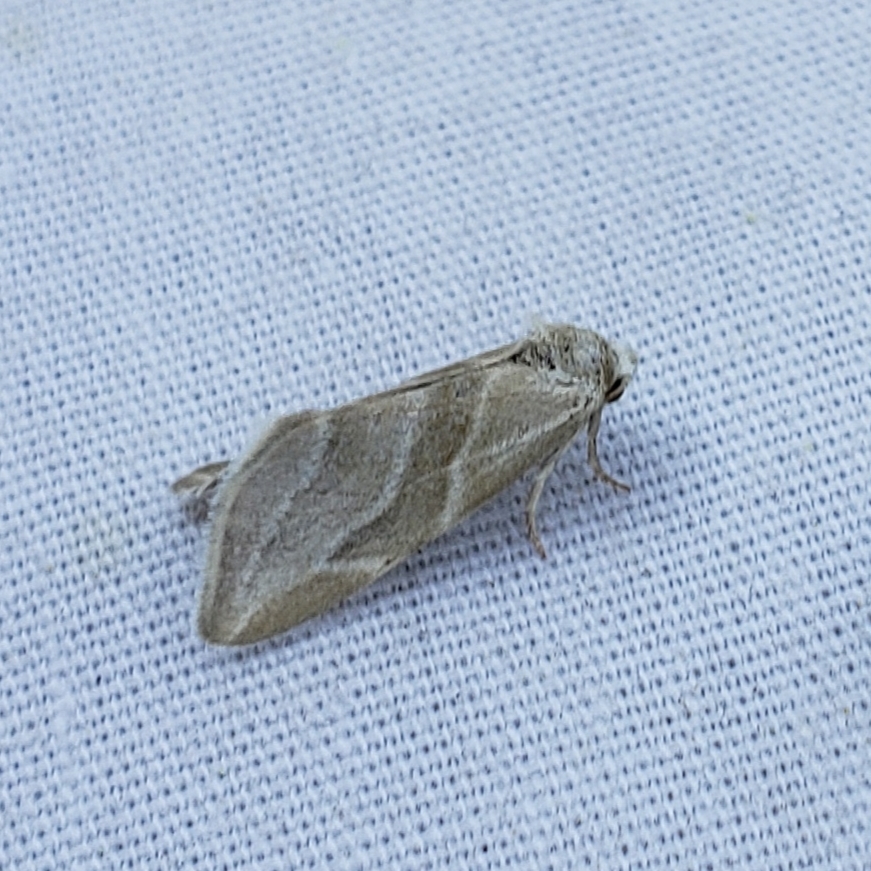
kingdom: Animalia
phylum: Arthropoda
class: Insecta
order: Lepidoptera
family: Noctuidae
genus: Plagiomimicus
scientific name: Plagiomimicus tepperi
